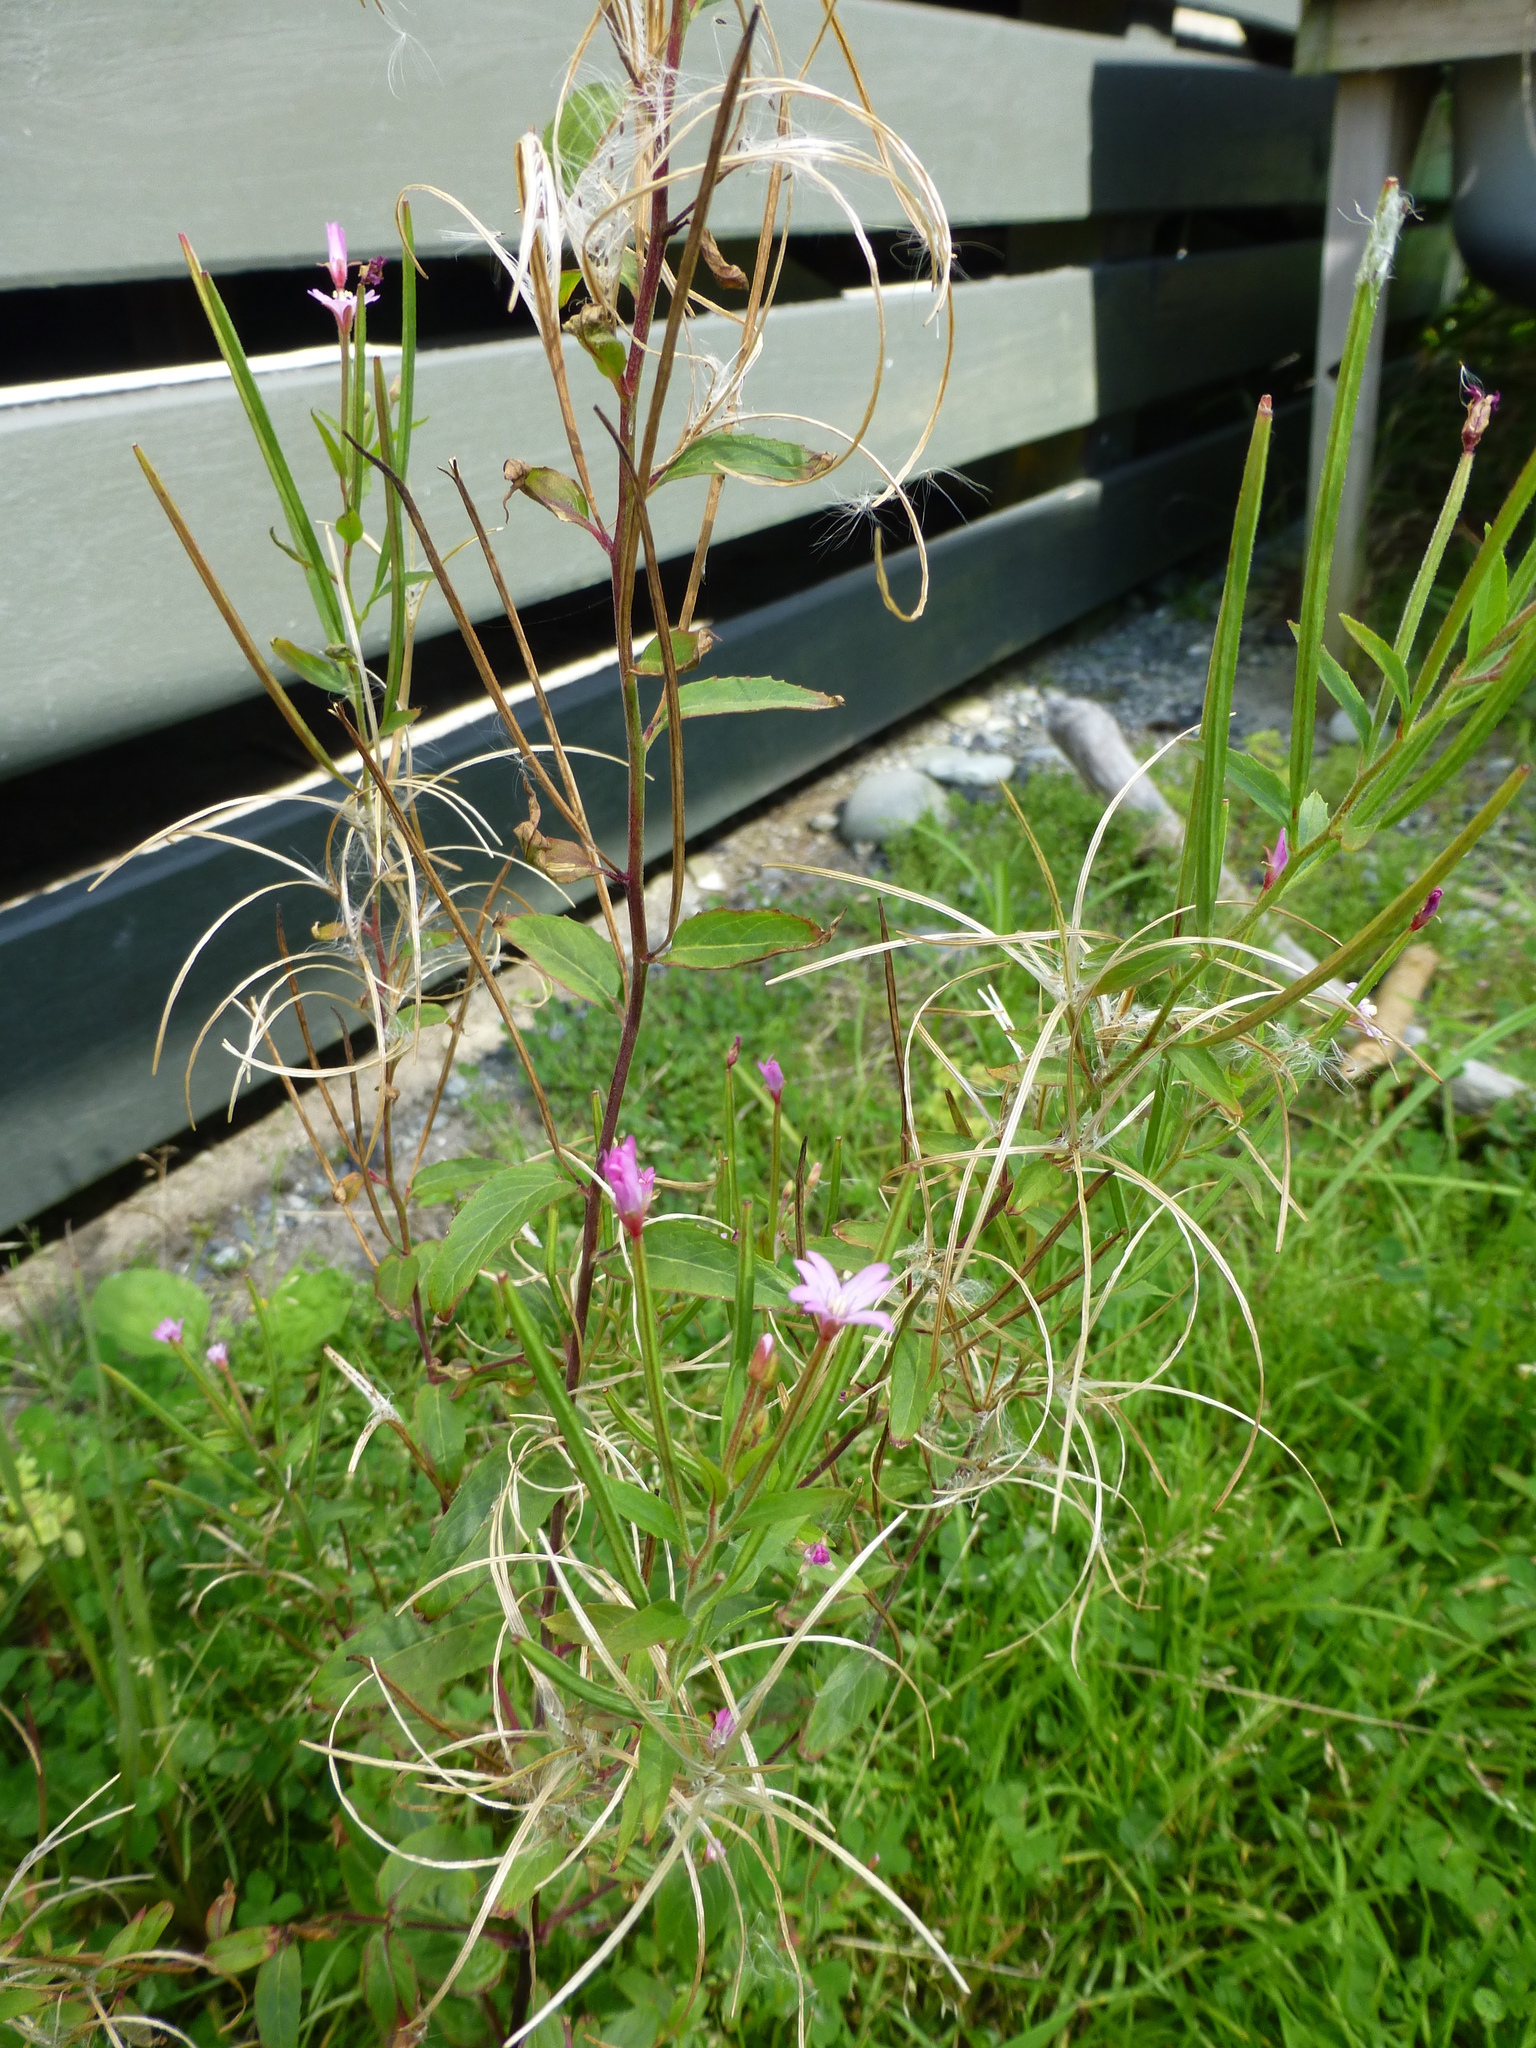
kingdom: Plantae
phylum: Tracheophyta
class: Magnoliopsida
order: Myrtales
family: Onagraceae
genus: Epilobium
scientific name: Epilobium ciliatum
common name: American willowherb
